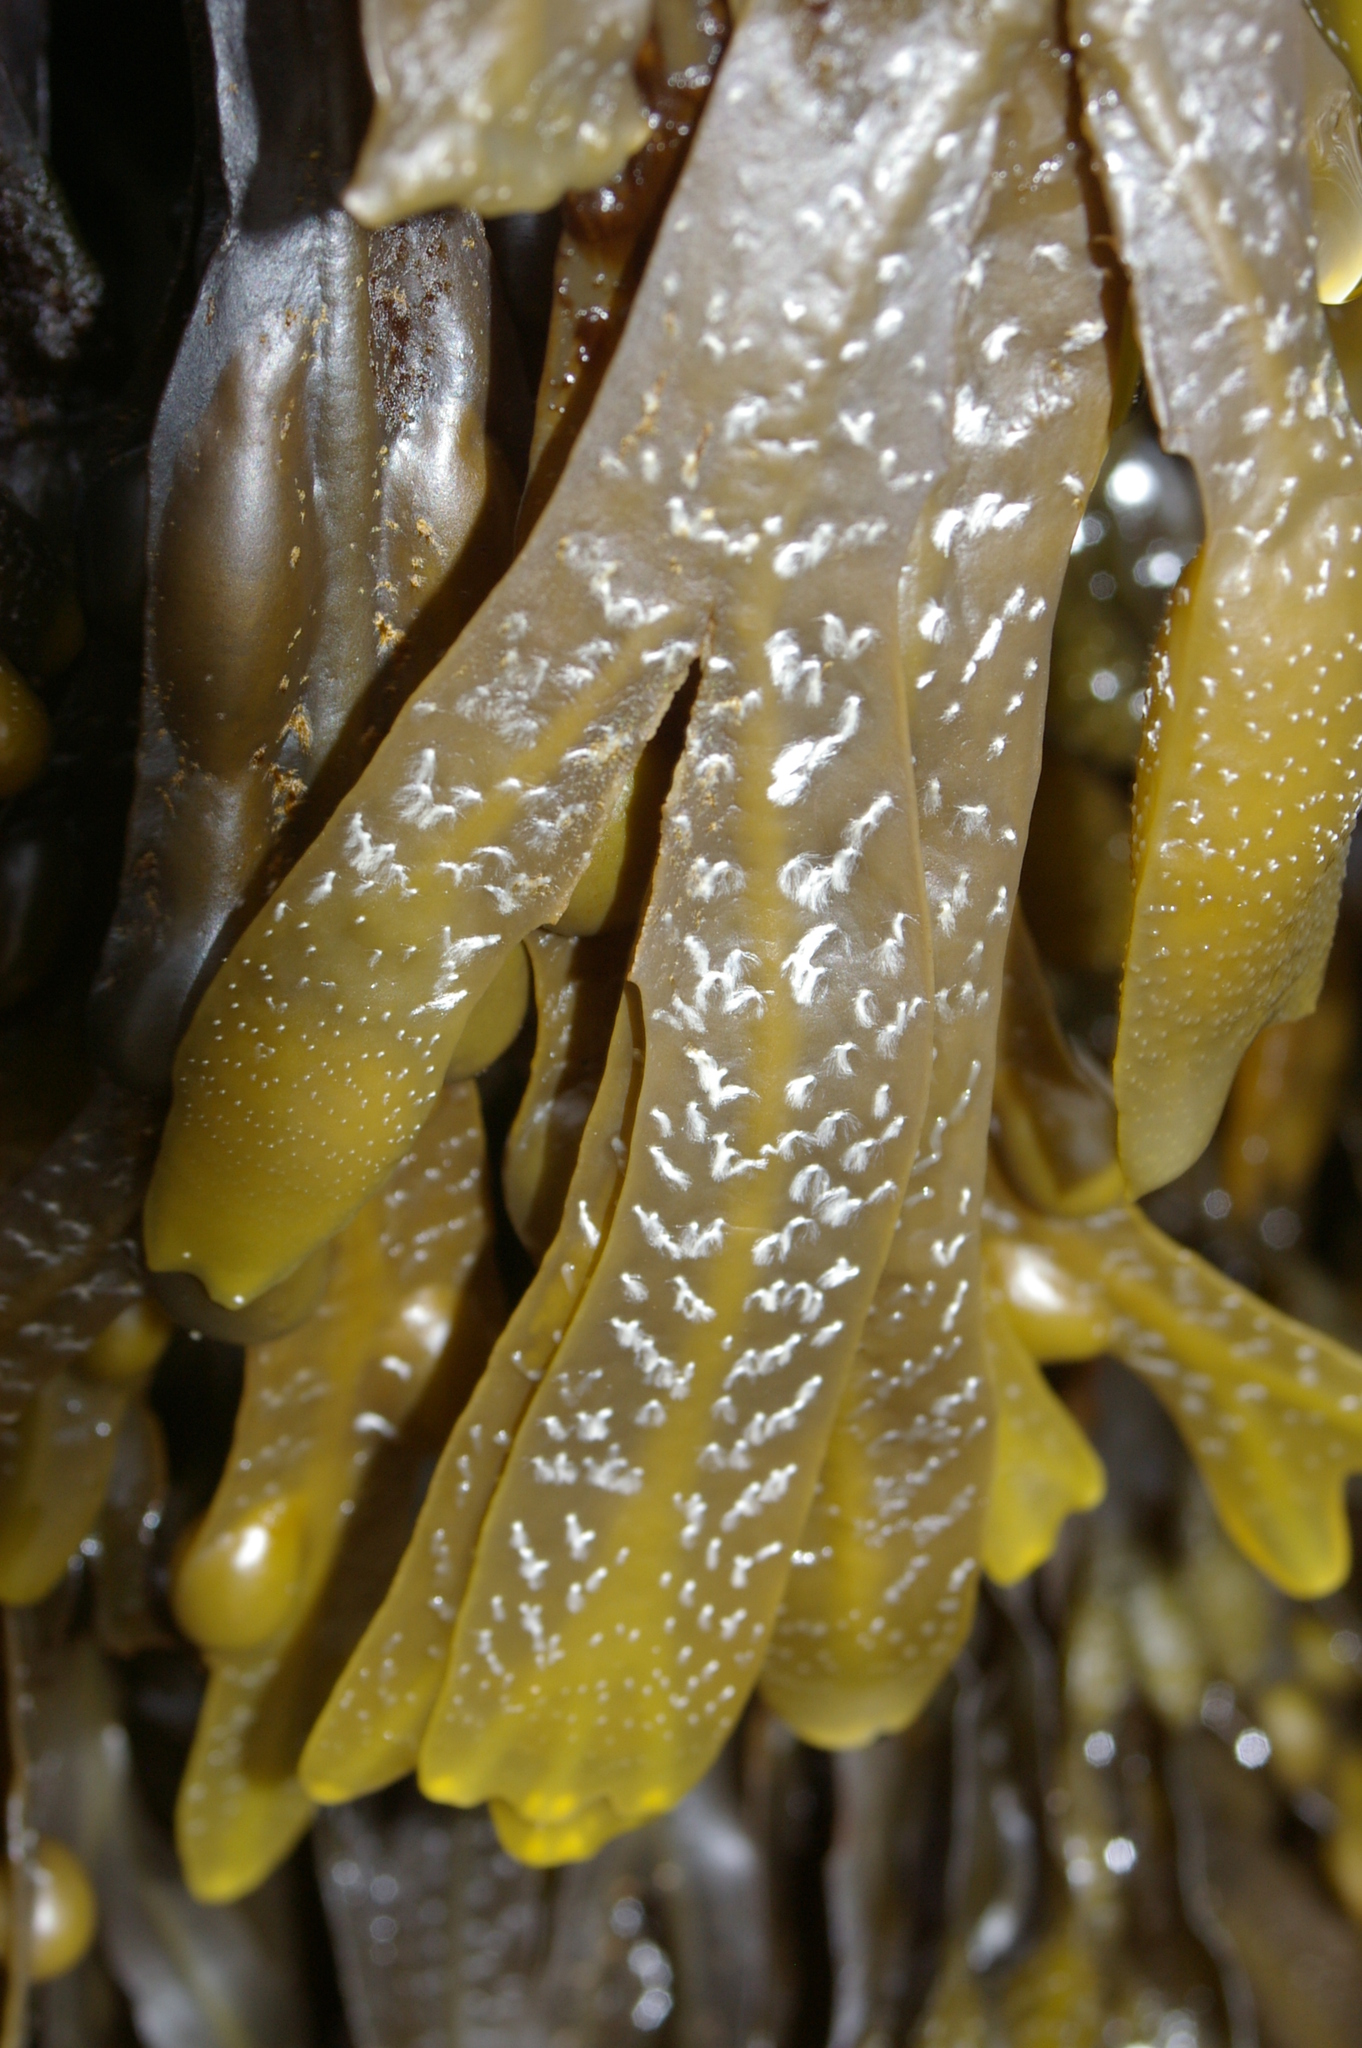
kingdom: Chromista
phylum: Ochrophyta
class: Phaeophyceae
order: Fucales
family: Fucaceae
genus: Fucus
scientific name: Fucus vesiculosus
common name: Bladder wrack
